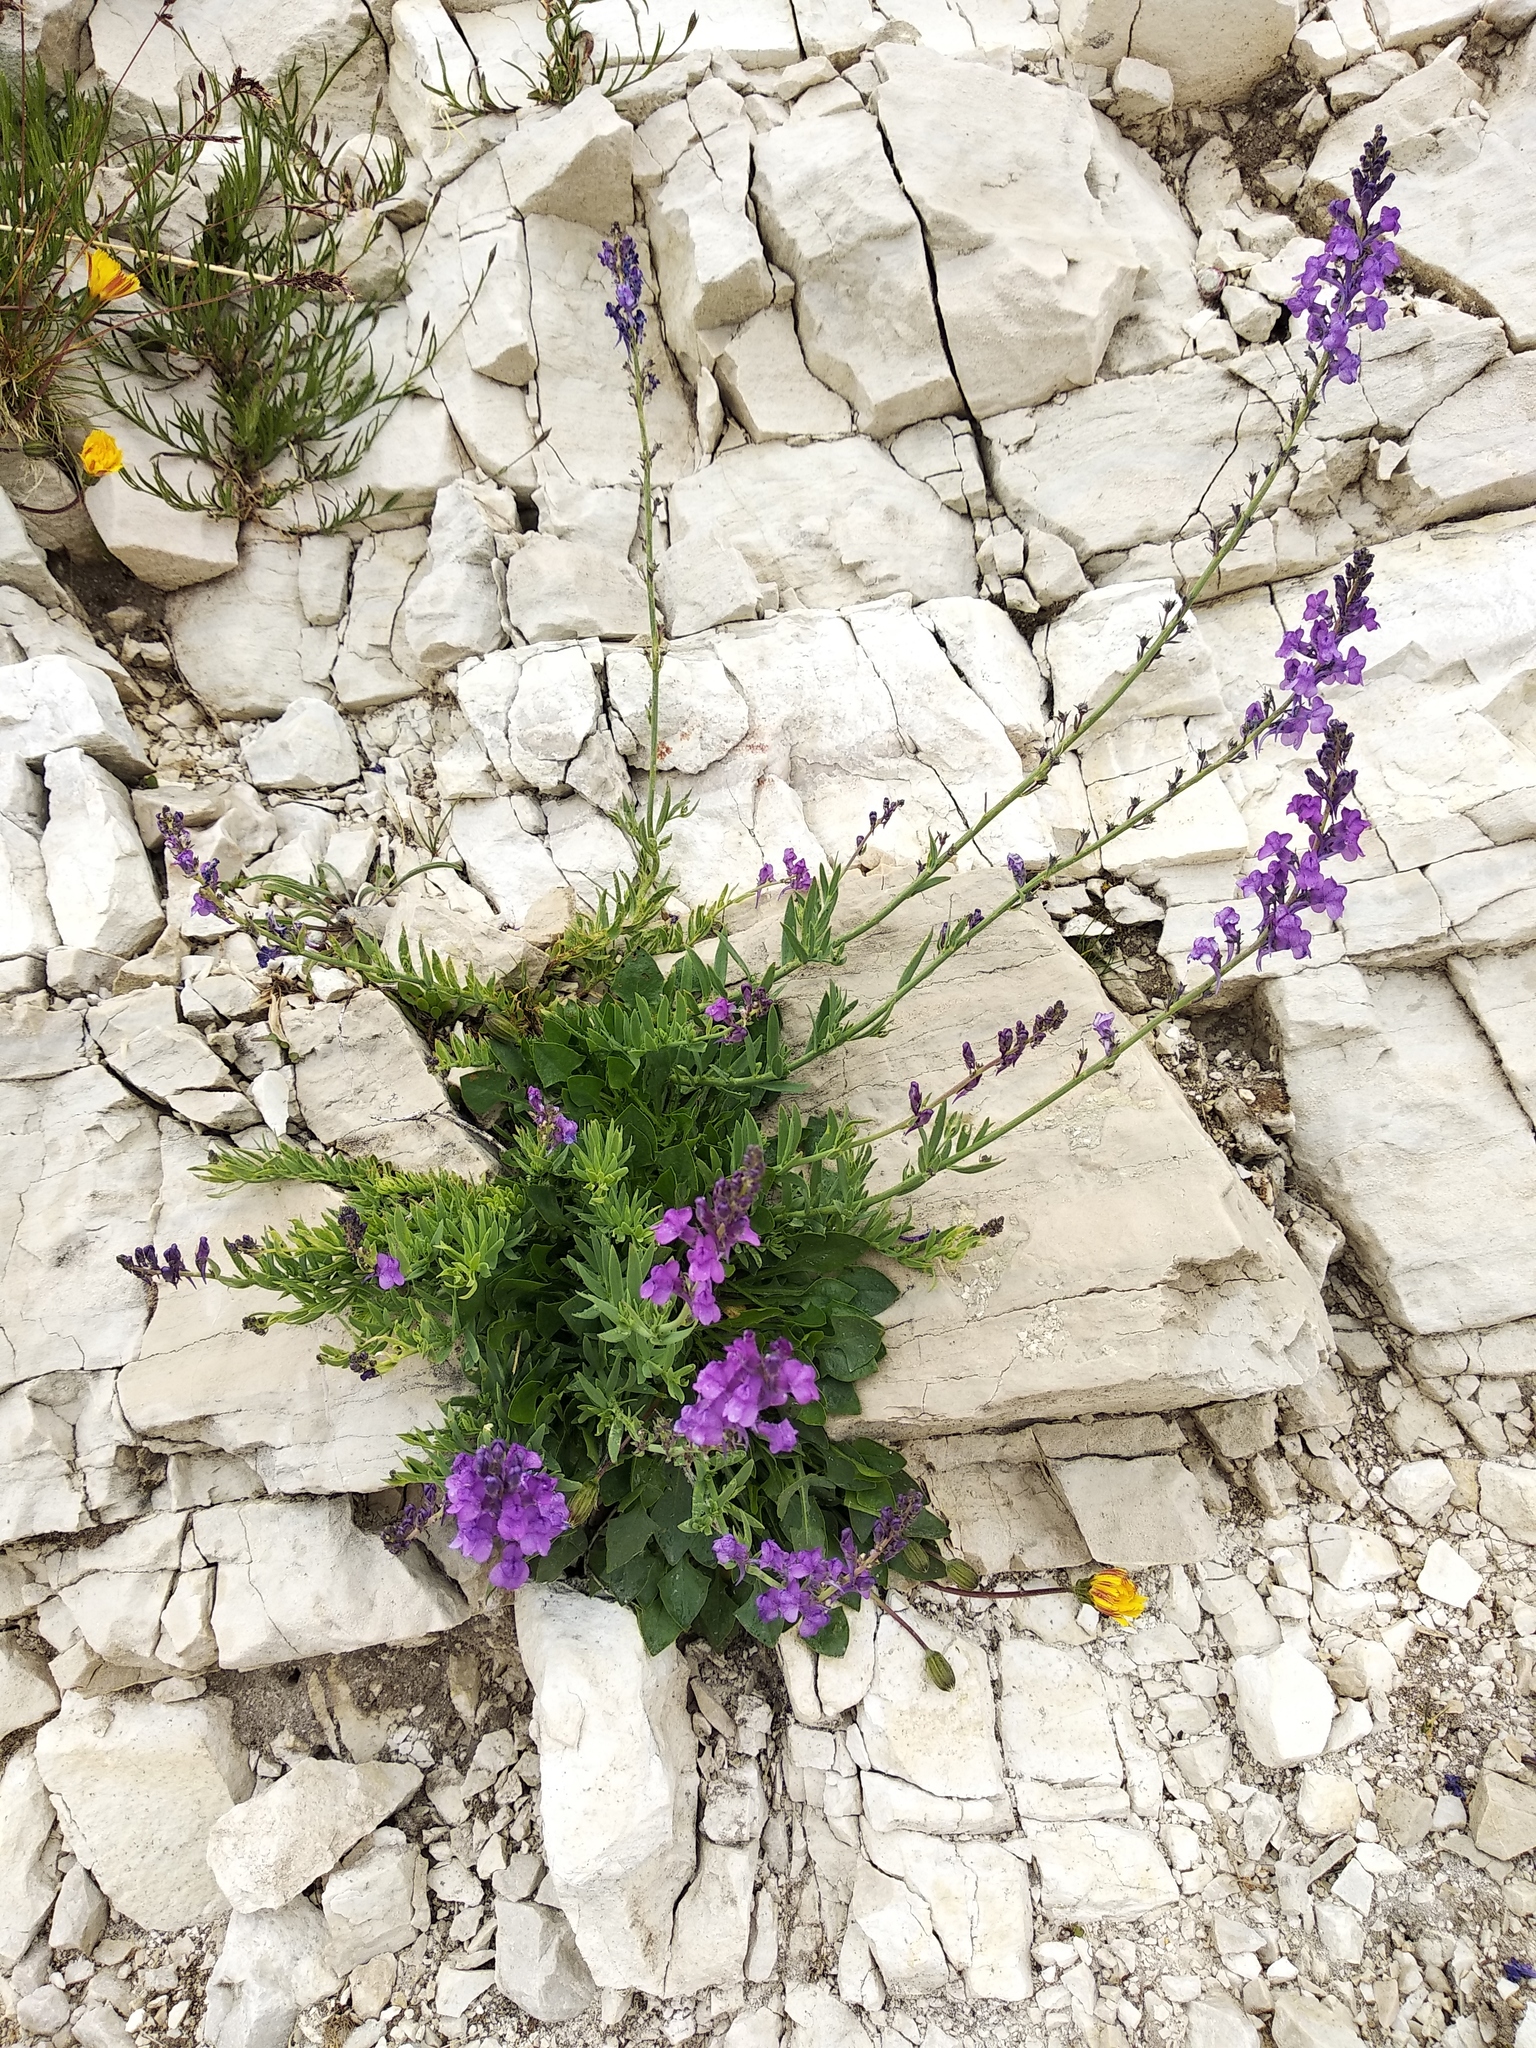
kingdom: Plantae
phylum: Tracheophyta
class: Magnoliopsida
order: Lamiales
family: Plantaginaceae
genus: Linaria
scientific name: Linaria purpurea
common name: Purple toadflax
